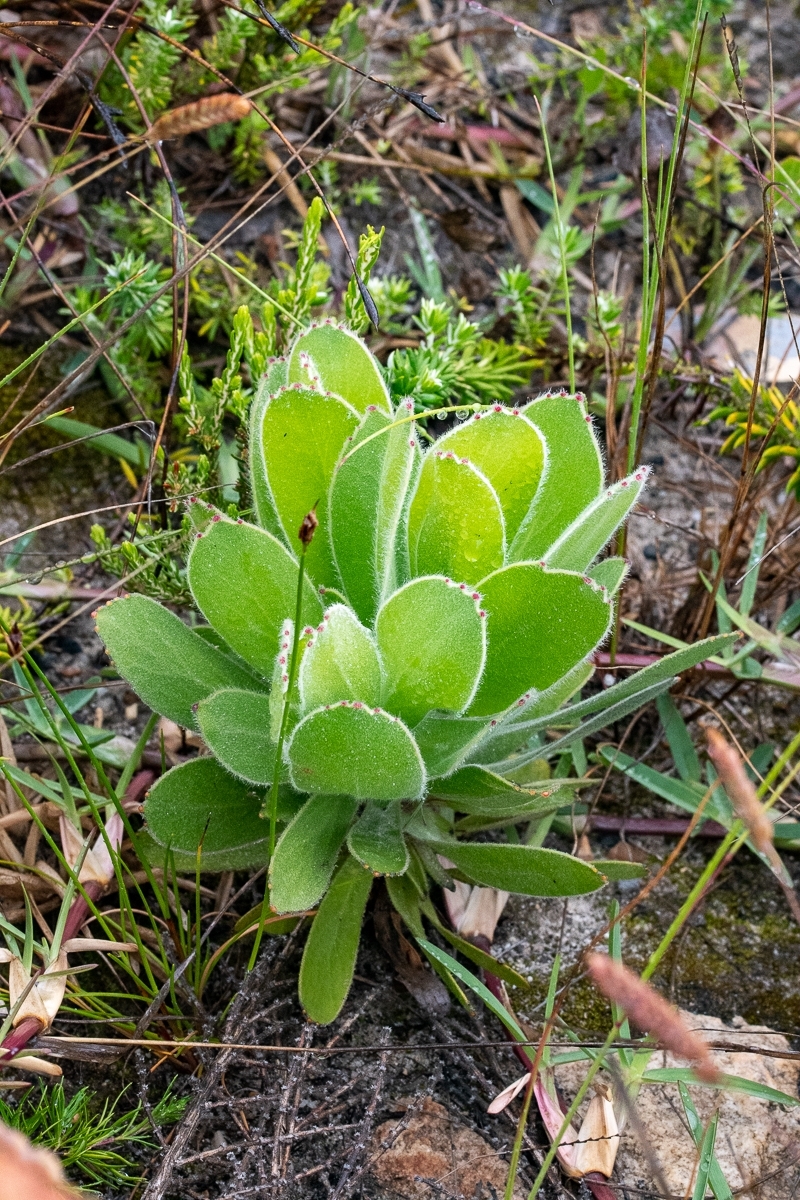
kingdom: Plantae
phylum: Tracheophyta
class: Magnoliopsida
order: Proteales
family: Proteaceae
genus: Leucospermum
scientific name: Leucospermum conocarpodendron
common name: Tree pincushion
